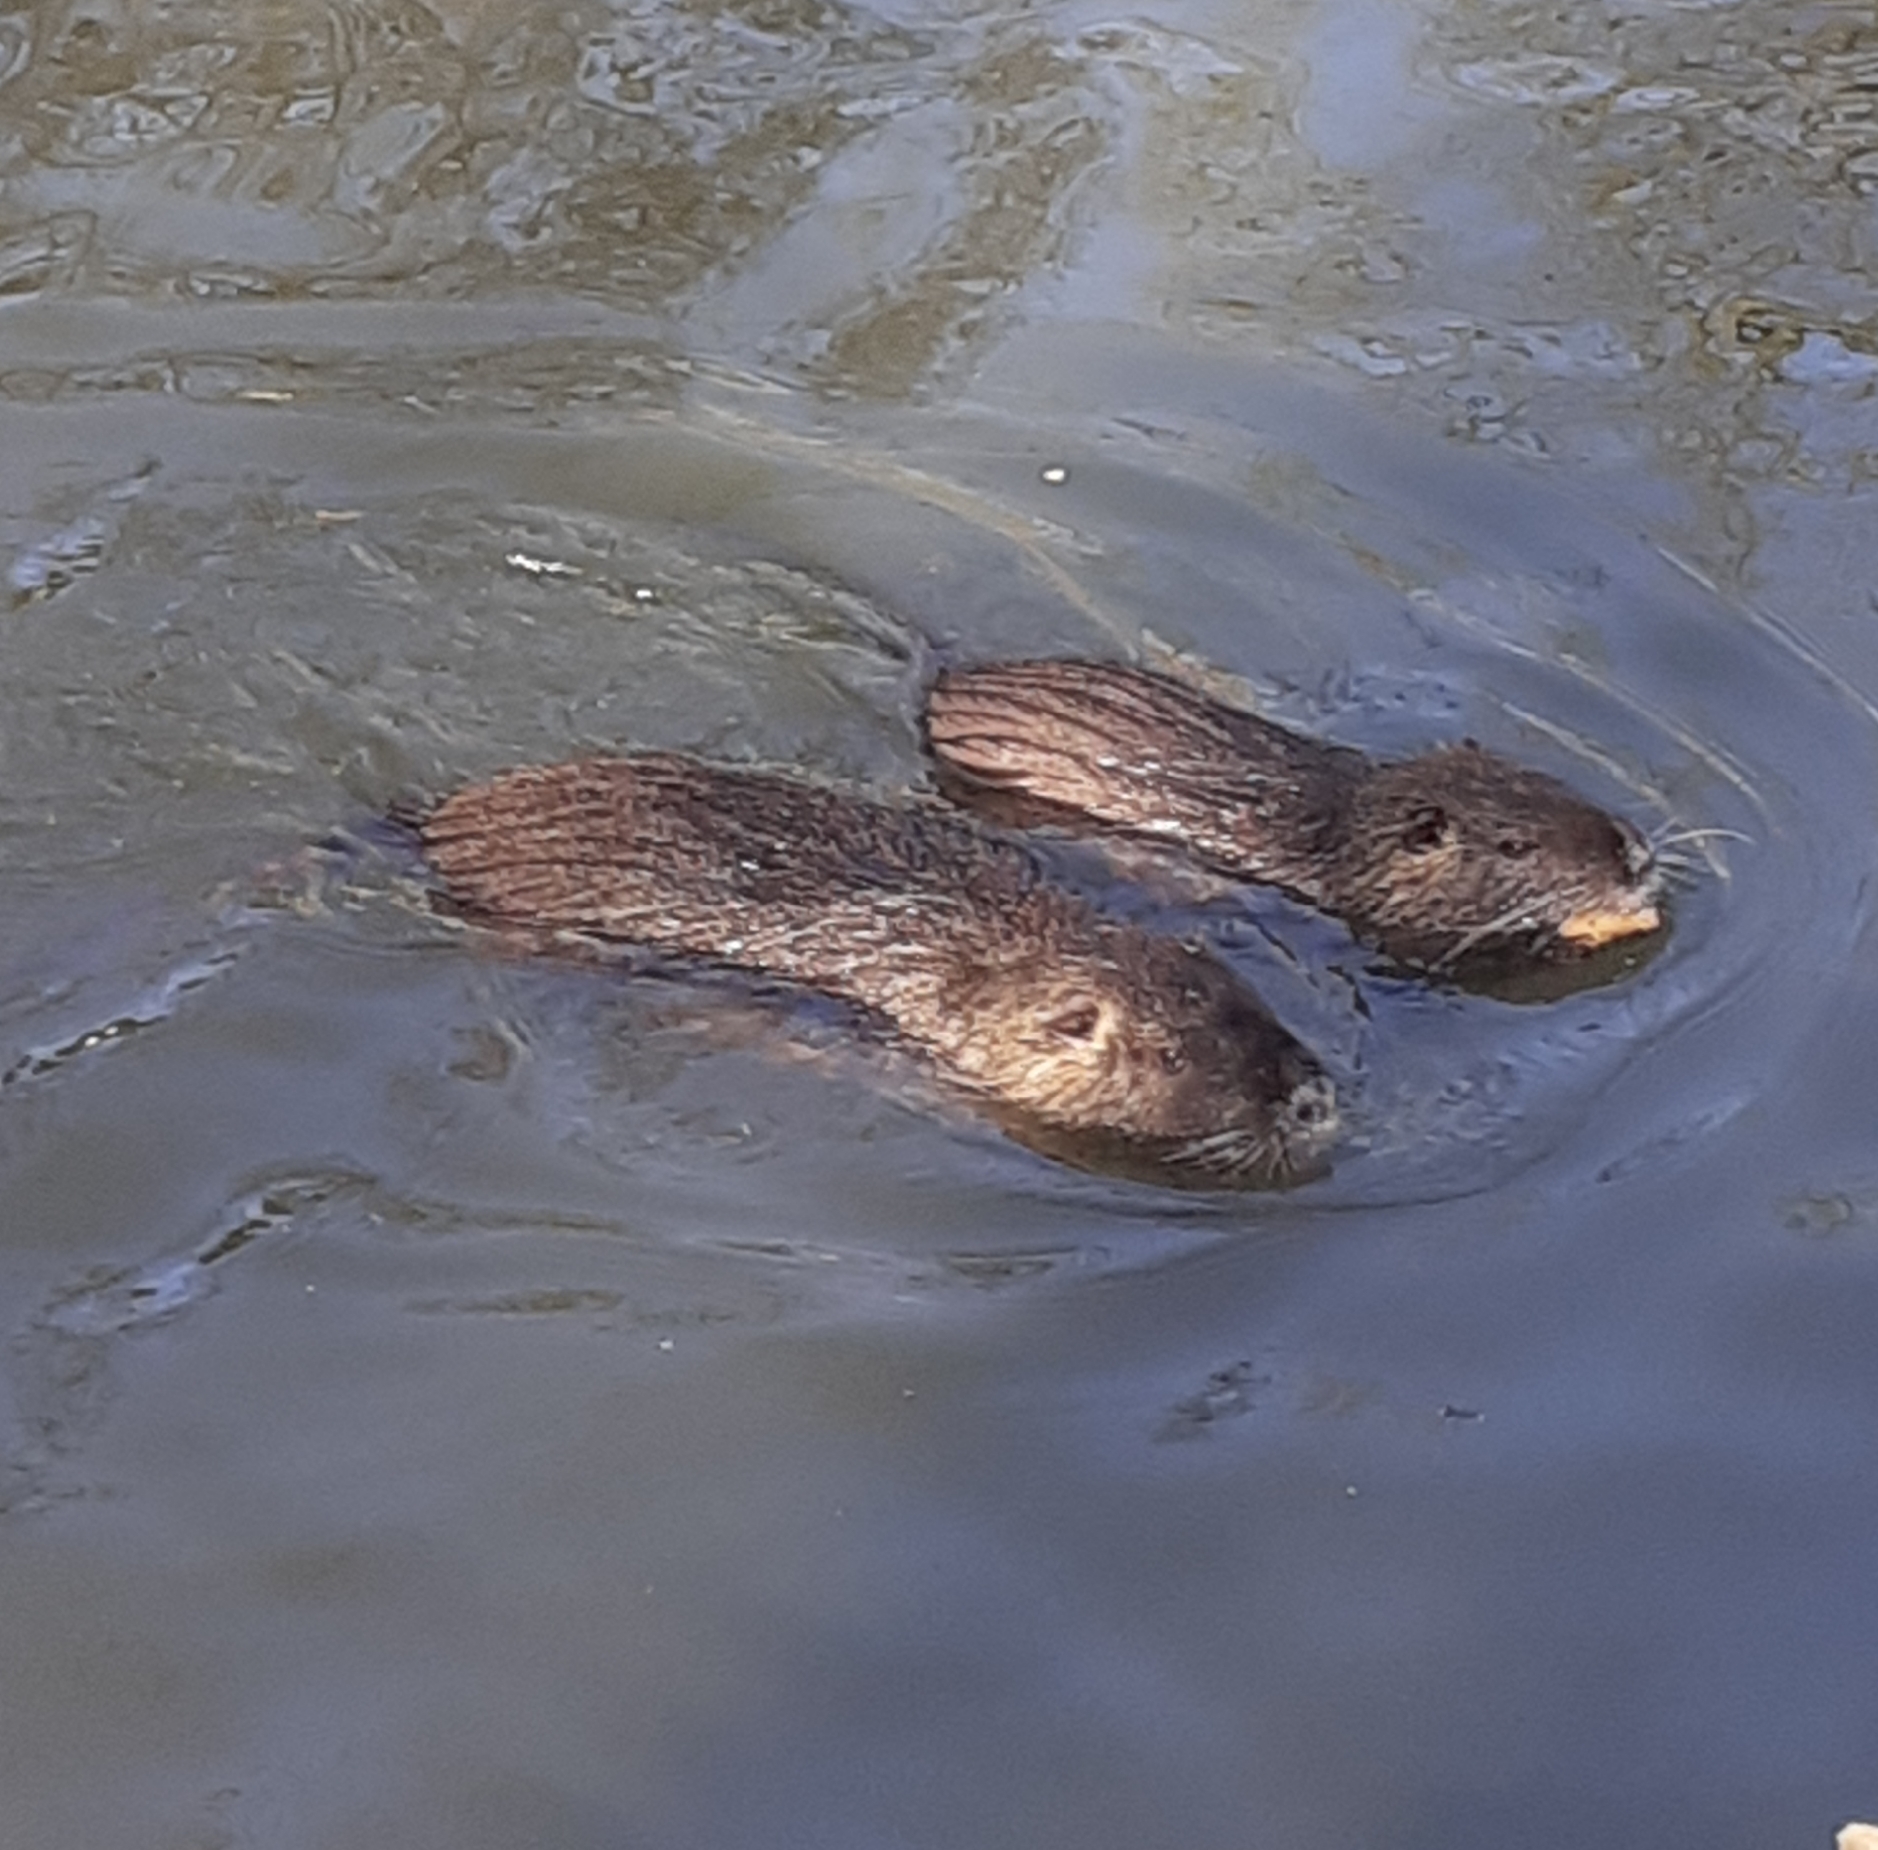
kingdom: Animalia
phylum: Chordata
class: Mammalia
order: Rodentia
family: Myocastoridae
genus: Myocastor
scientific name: Myocastor coypus
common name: Coypu
